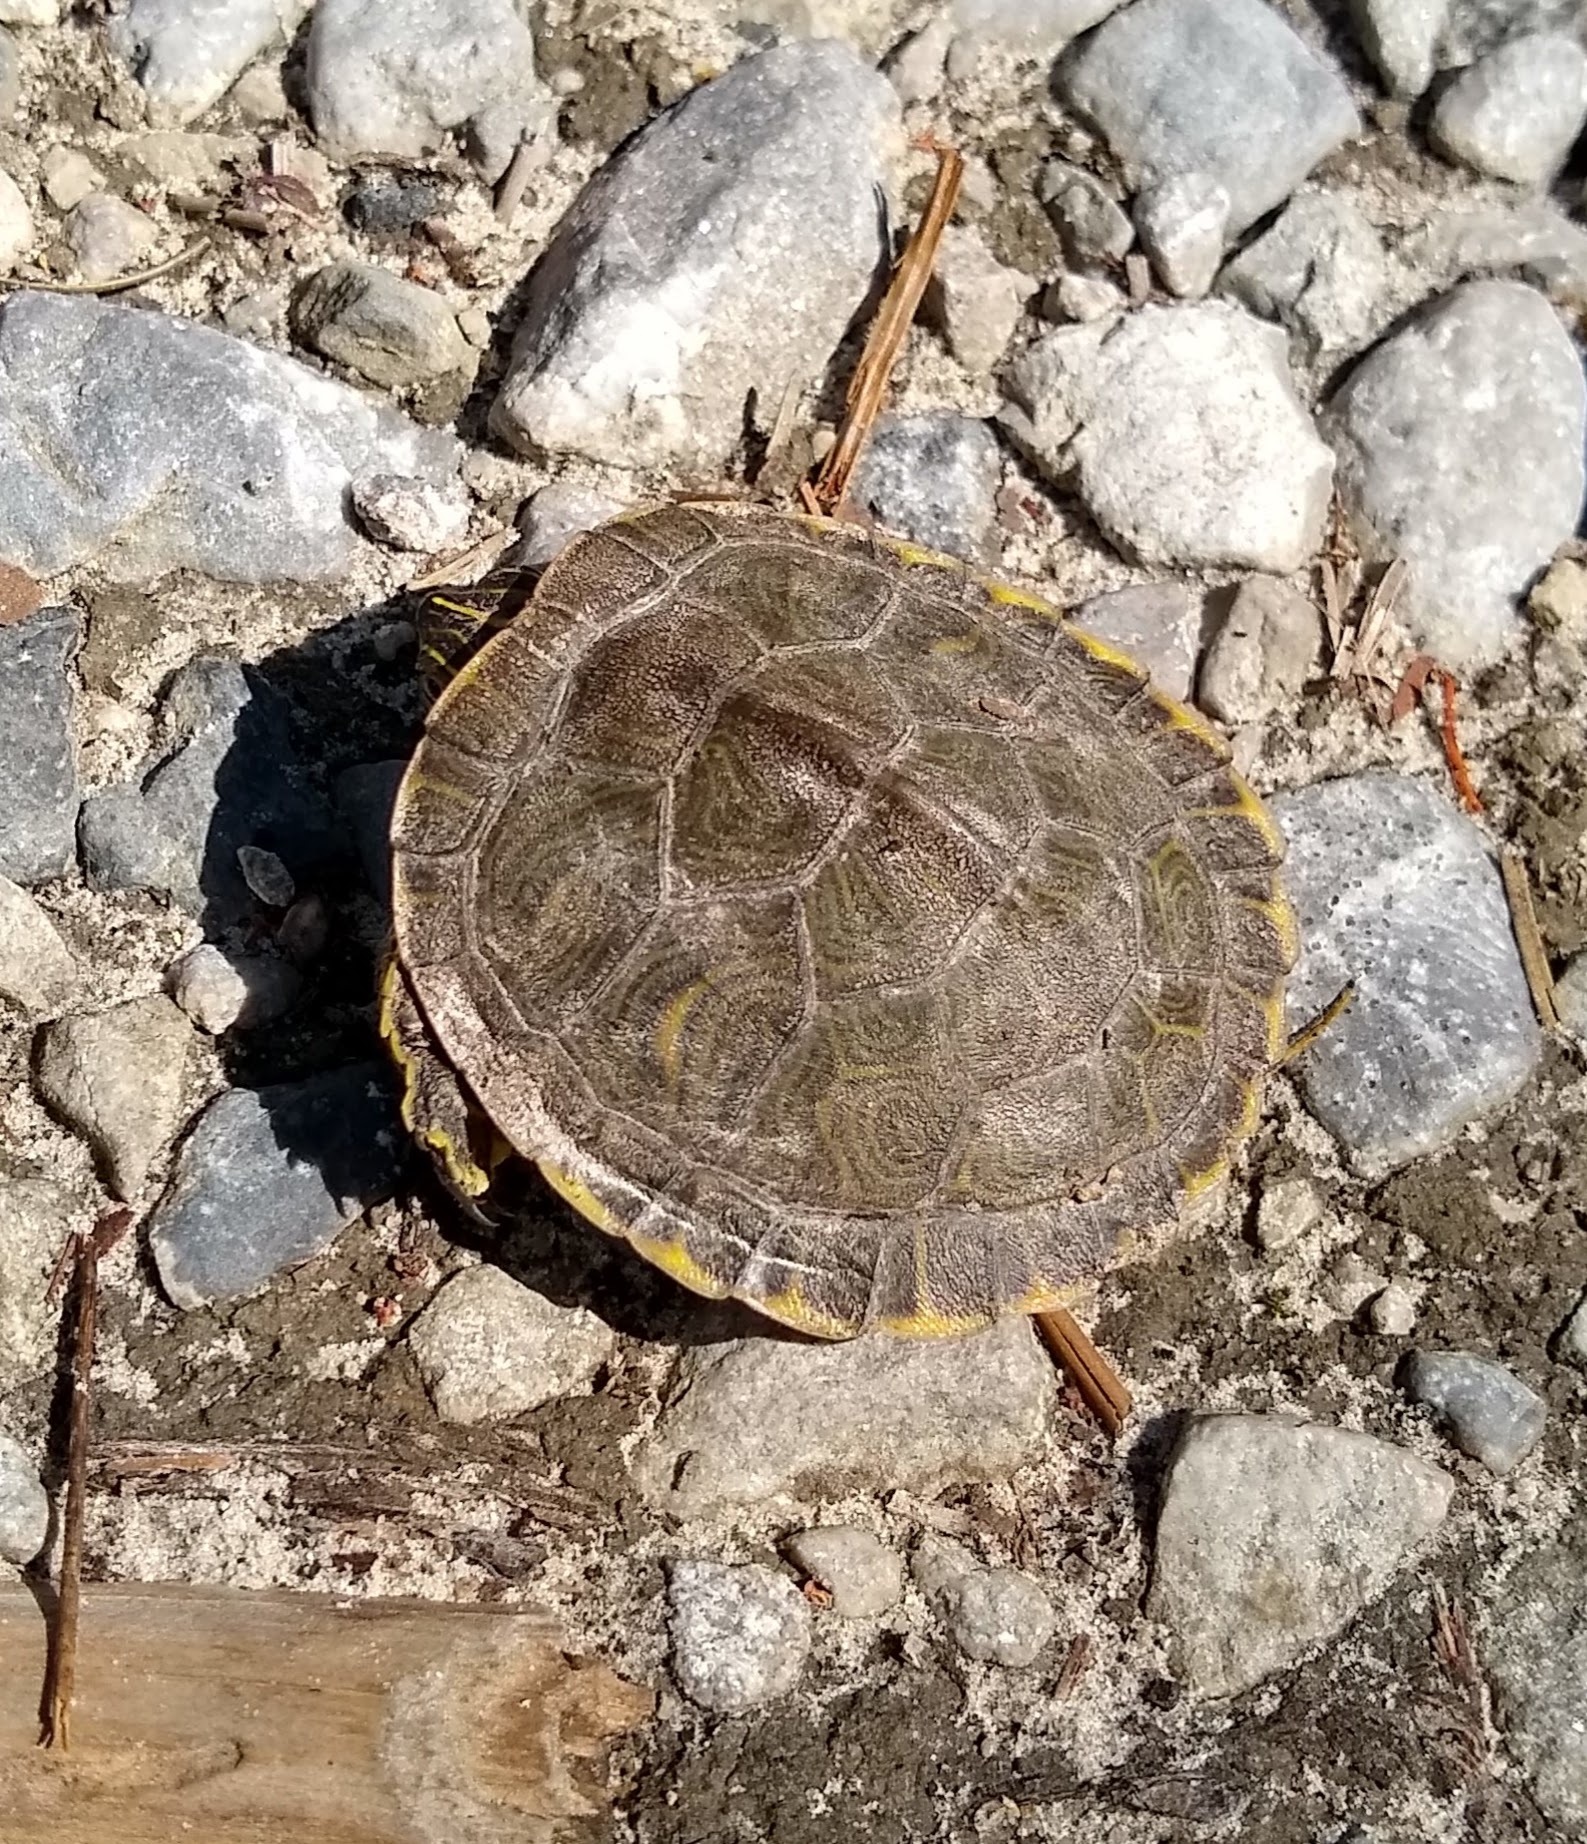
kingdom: Animalia
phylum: Chordata
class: Testudines
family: Emydidae
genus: Pseudemys
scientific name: Pseudemys concinna
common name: Eastern river cooter
